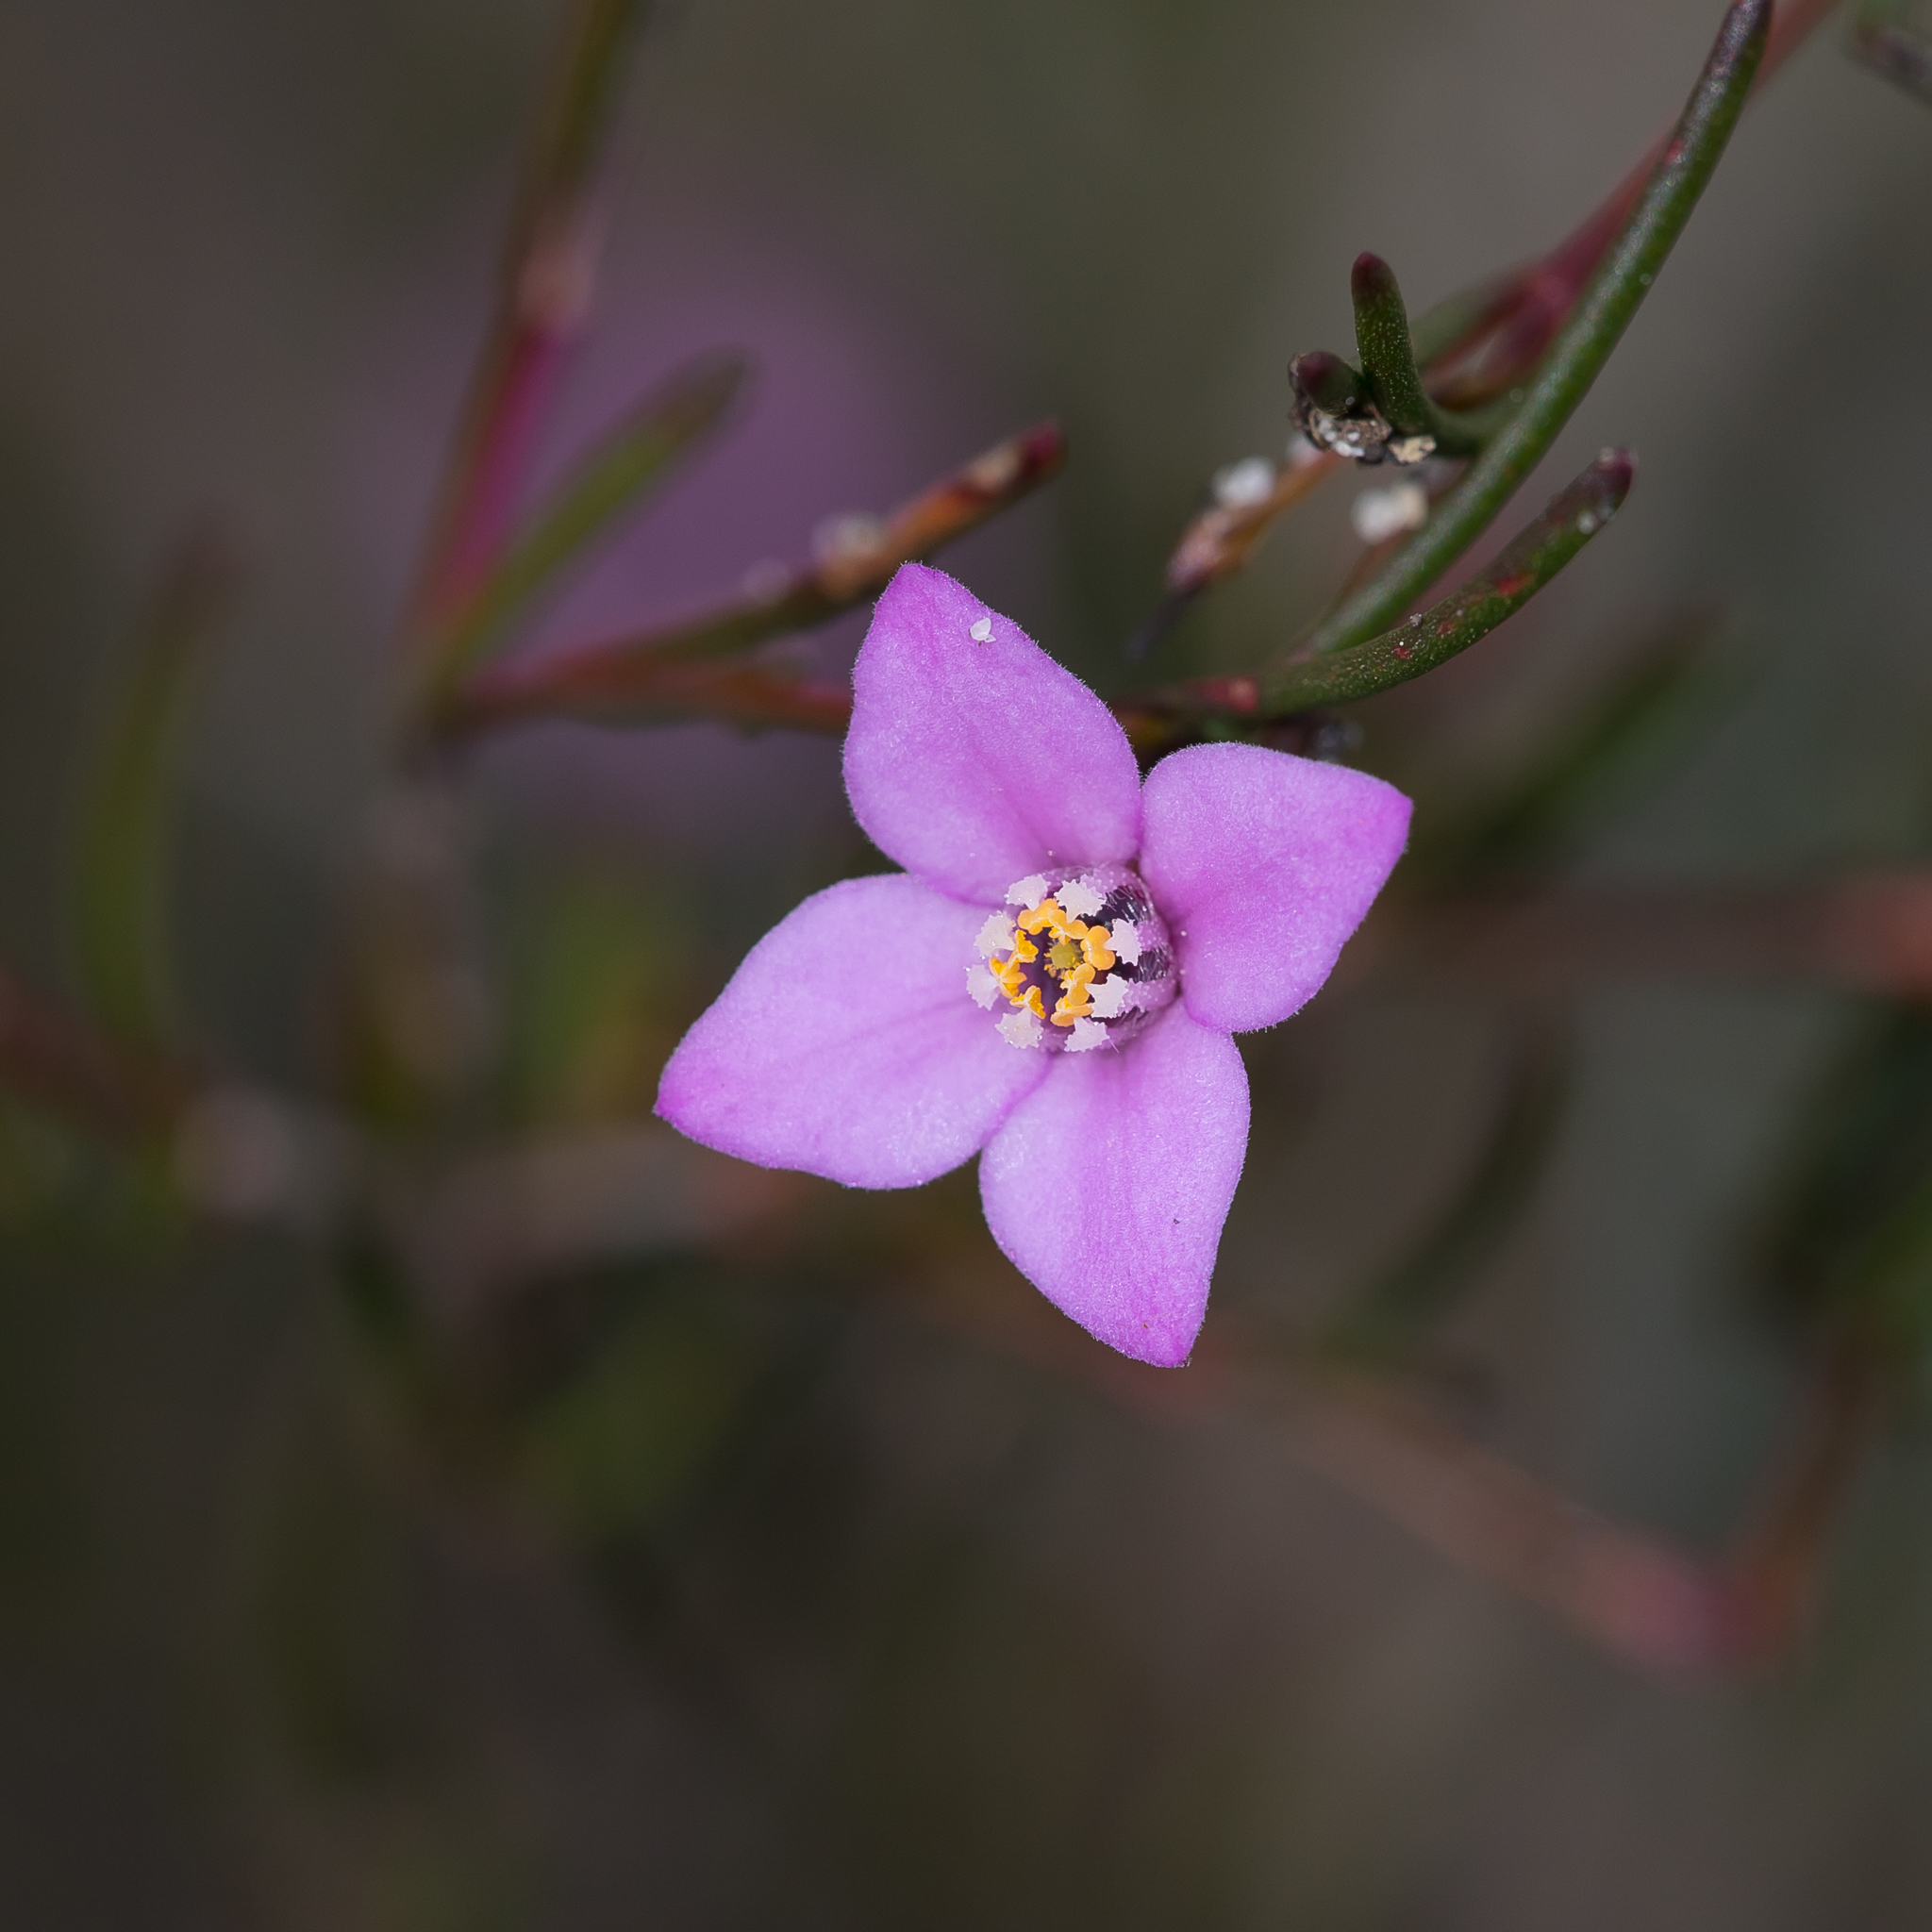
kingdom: Plantae
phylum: Tracheophyta
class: Magnoliopsida
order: Sapindales
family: Rutaceae
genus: Boronia
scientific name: Boronia filifolia
